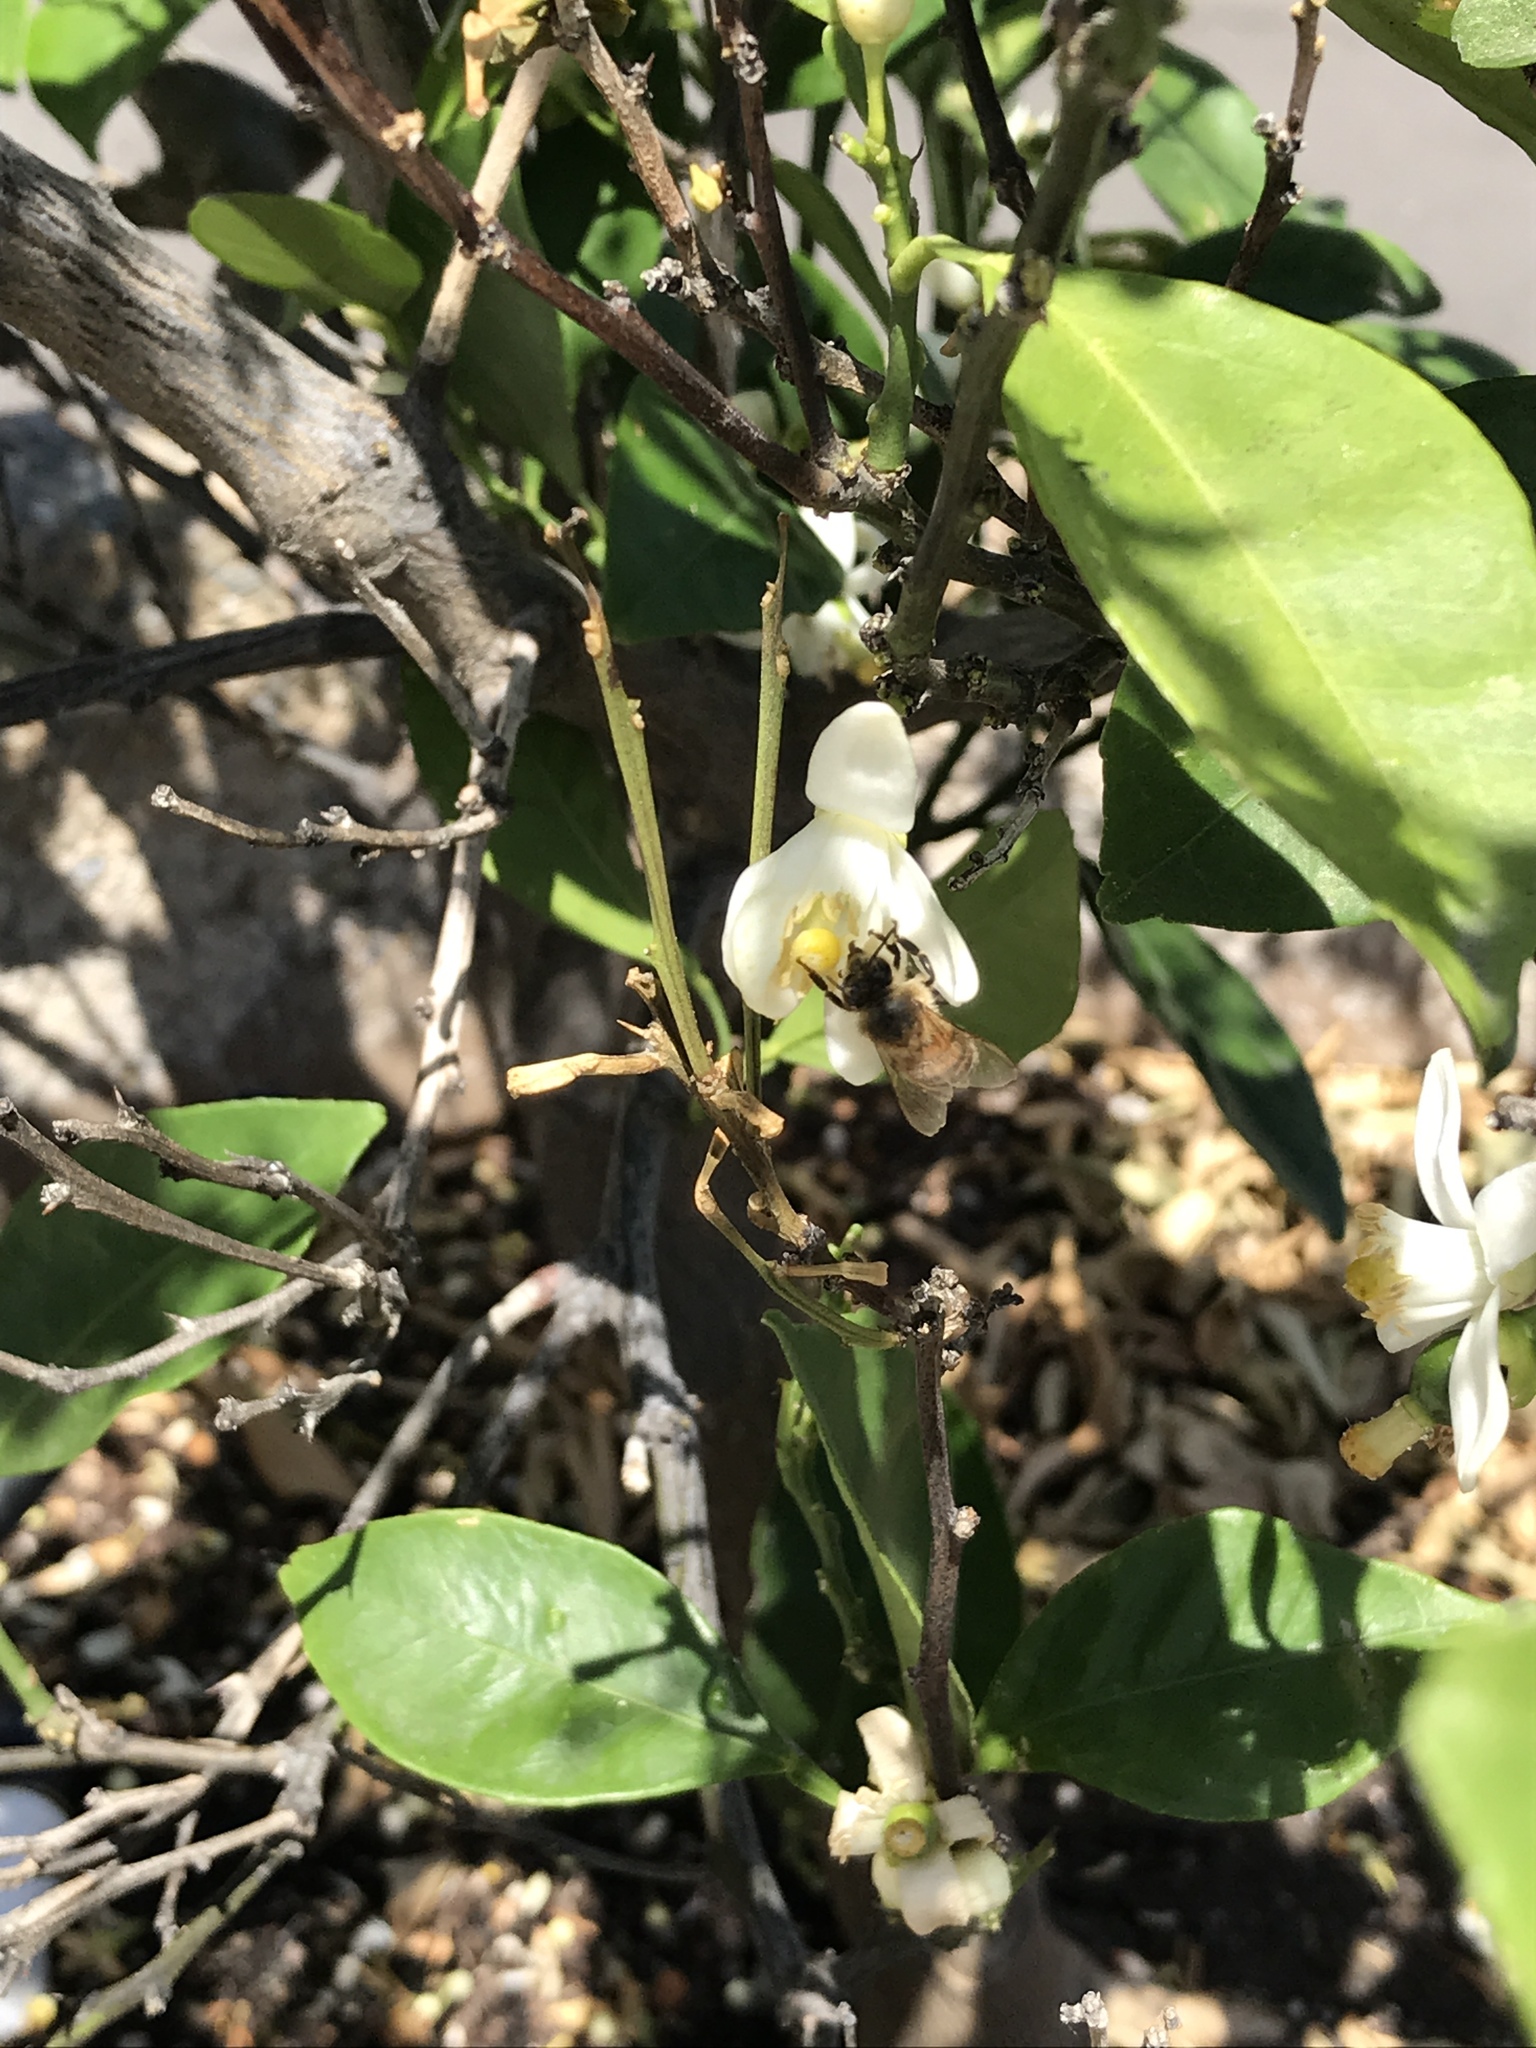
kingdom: Animalia
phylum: Arthropoda
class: Insecta
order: Hymenoptera
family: Apidae
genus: Apis
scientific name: Apis mellifera
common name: Honey bee
